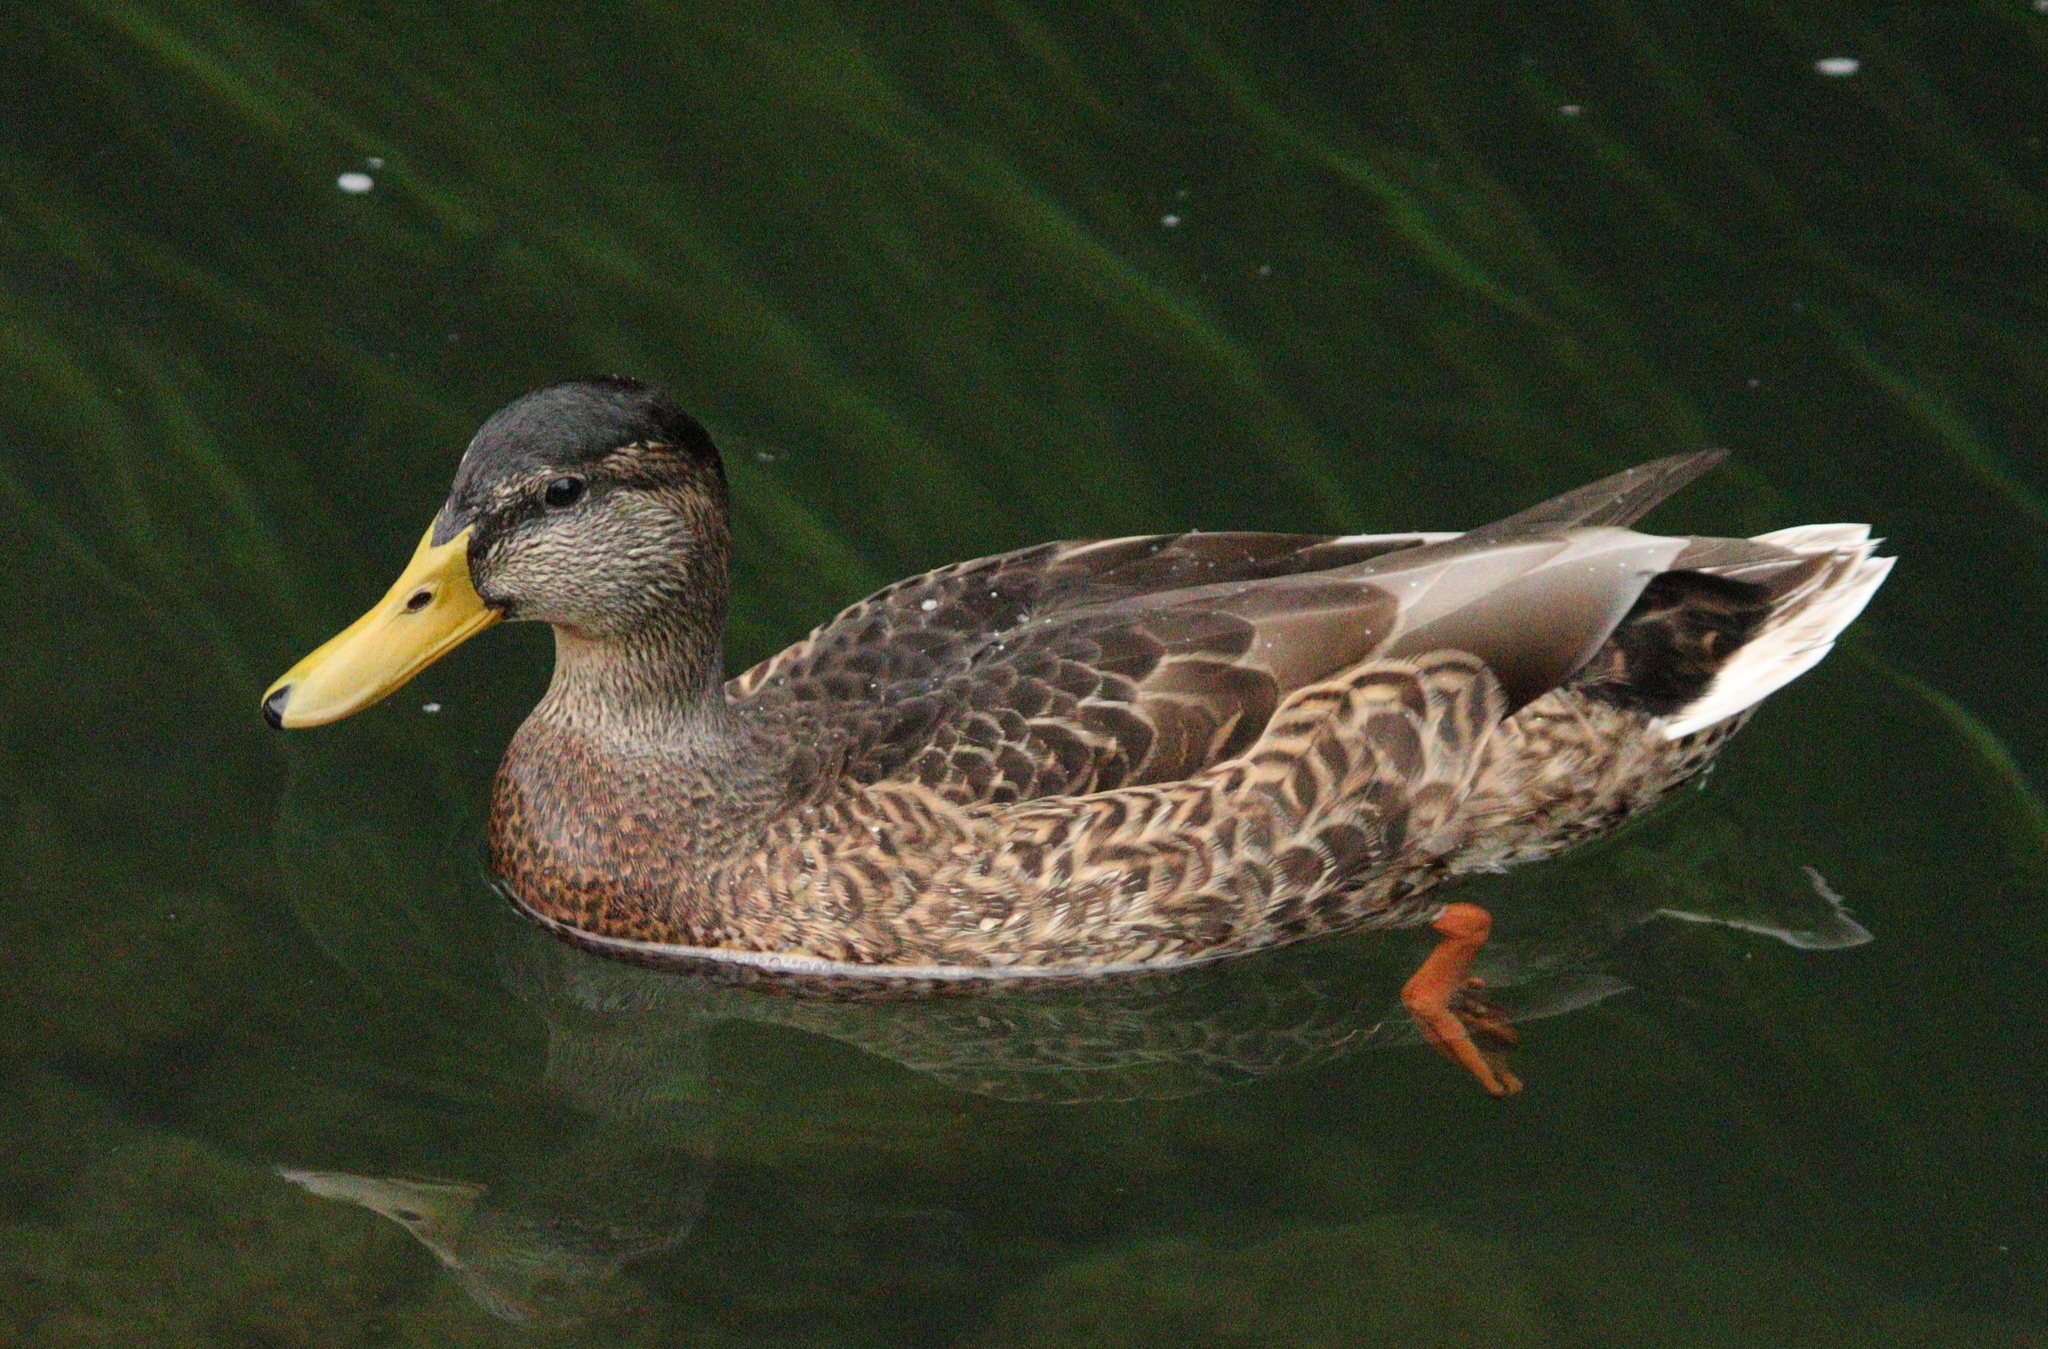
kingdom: Animalia
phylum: Chordata
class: Aves
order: Anseriformes
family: Anatidae
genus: Anas
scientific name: Anas platyrhynchos
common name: Mallard
